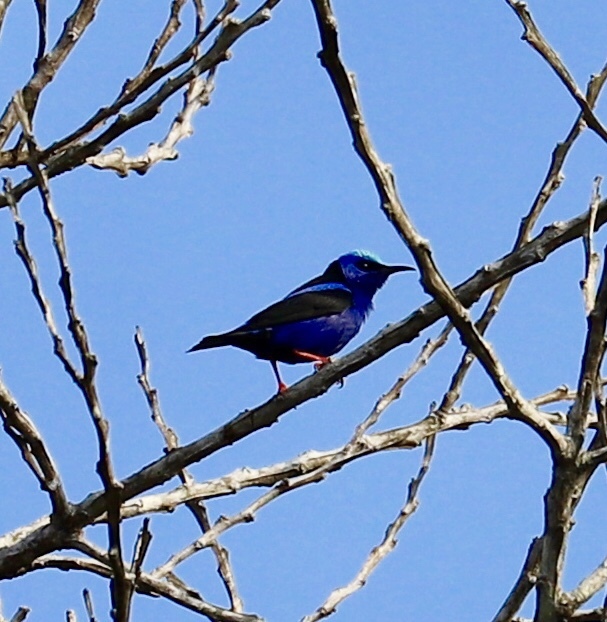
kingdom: Animalia
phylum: Chordata
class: Aves
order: Passeriformes
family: Thraupidae
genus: Cyanerpes
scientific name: Cyanerpes cyaneus
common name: Red-legged honeycreeper
